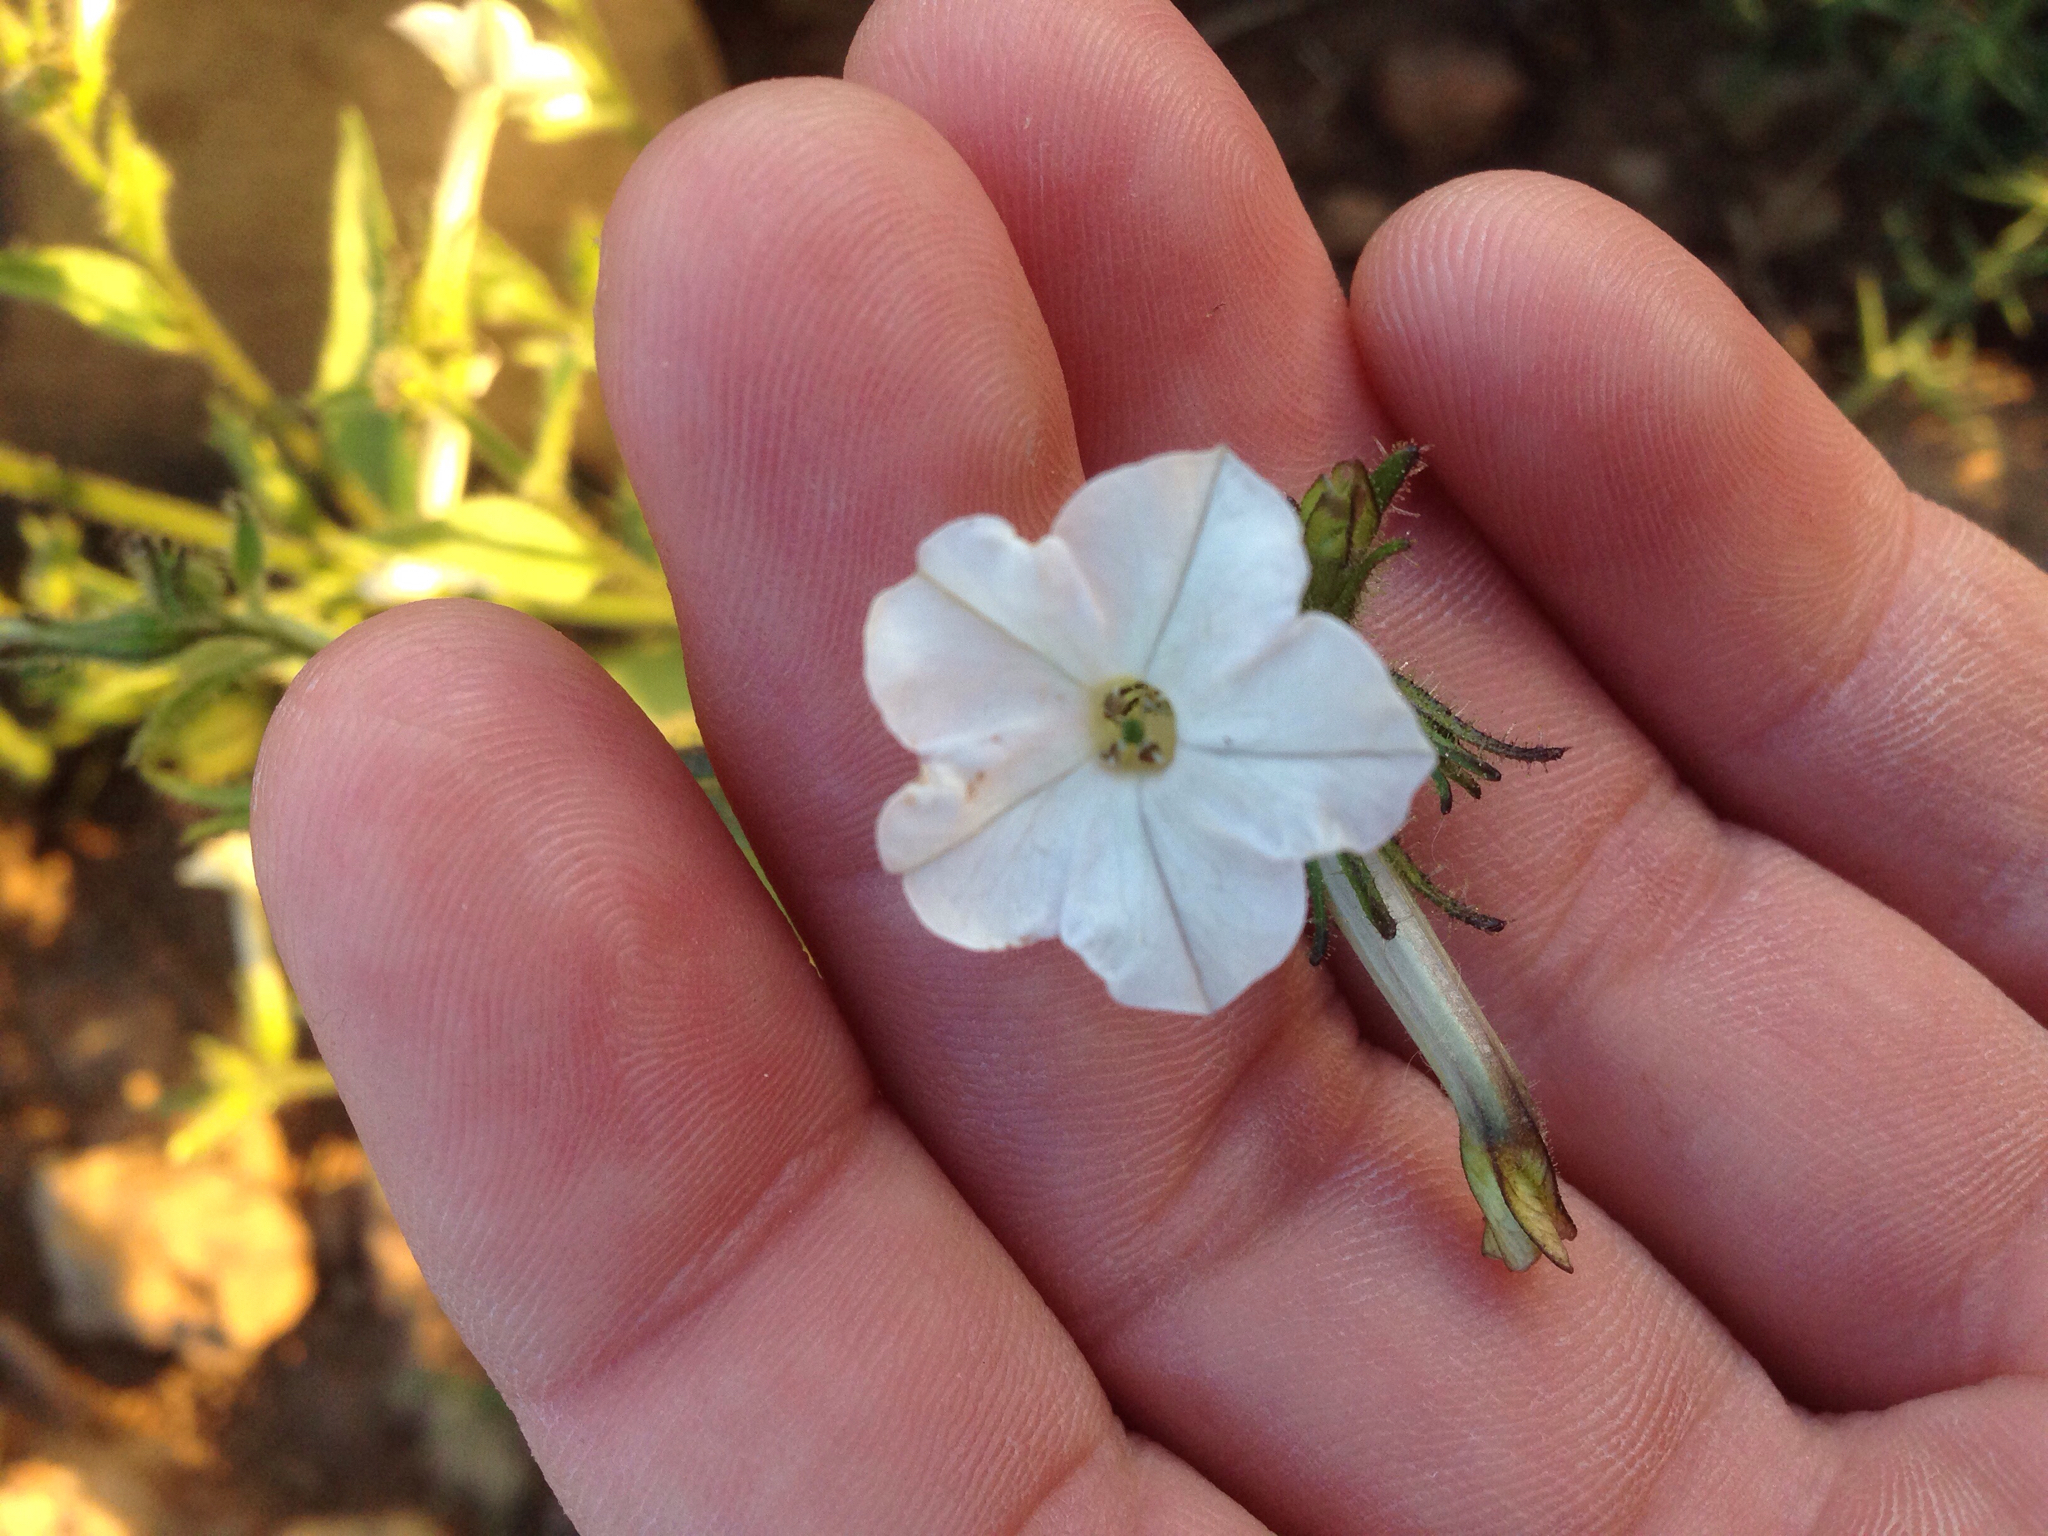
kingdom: Plantae
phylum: Tracheophyta
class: Magnoliopsida
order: Solanales
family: Solanaceae
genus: Nicotiana
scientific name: Nicotiana acuminata
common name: Manyflower tobacco
